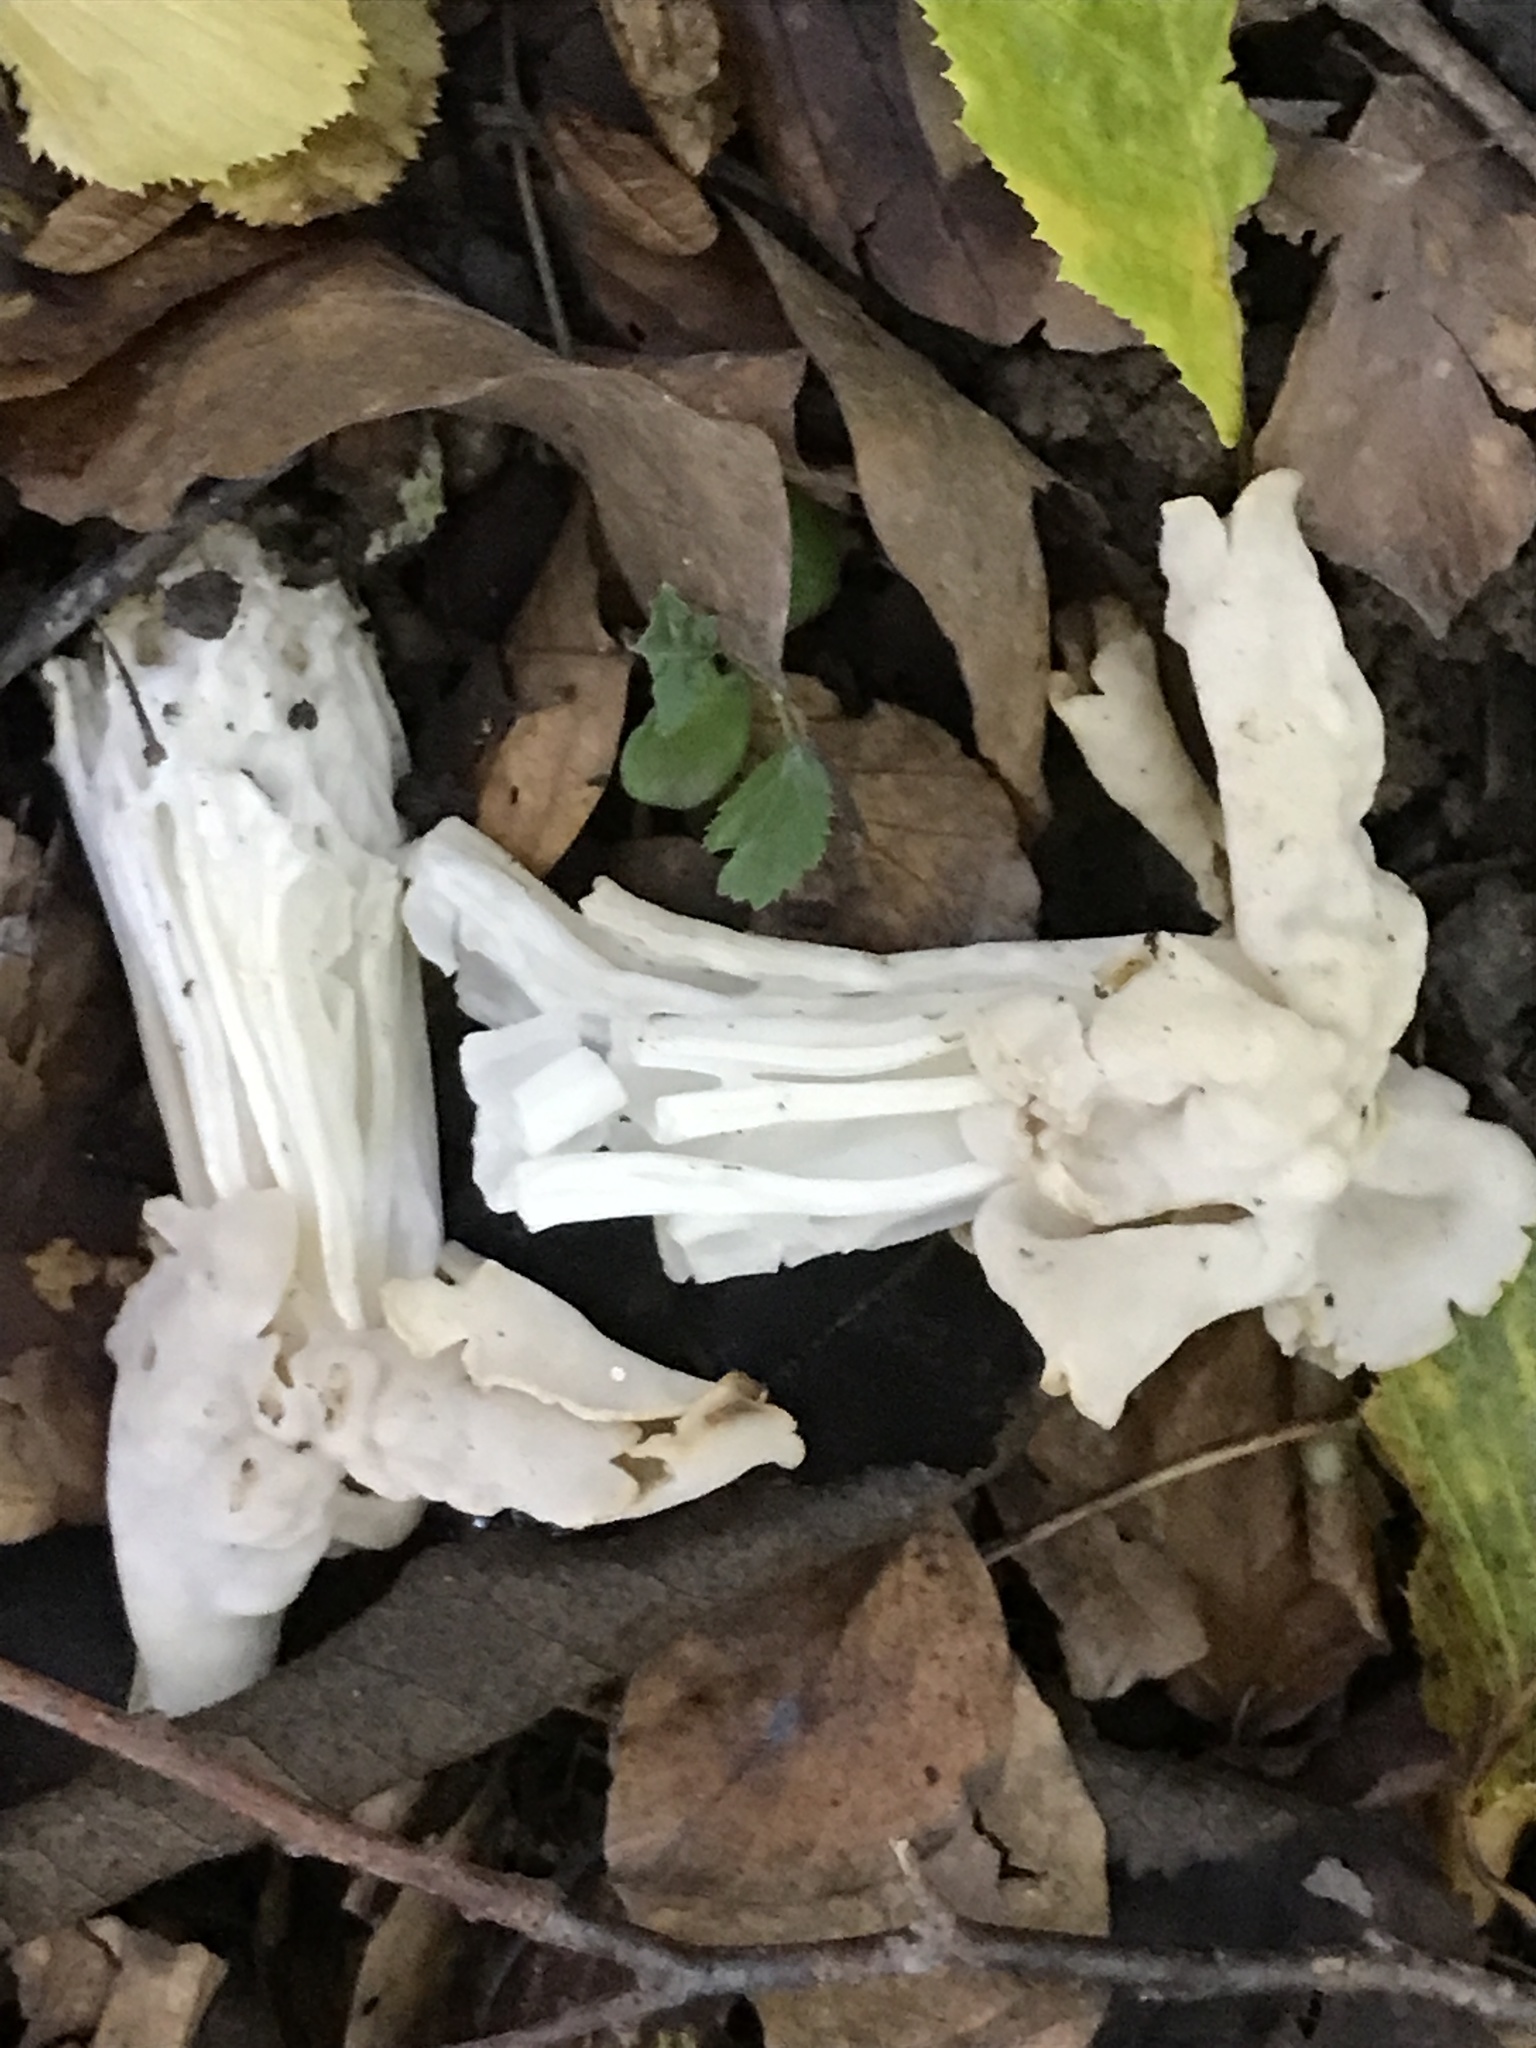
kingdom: Fungi
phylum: Ascomycota
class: Pezizomycetes
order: Pezizales
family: Helvellaceae
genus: Helvella
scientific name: Helvella crispa
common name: White saddle
